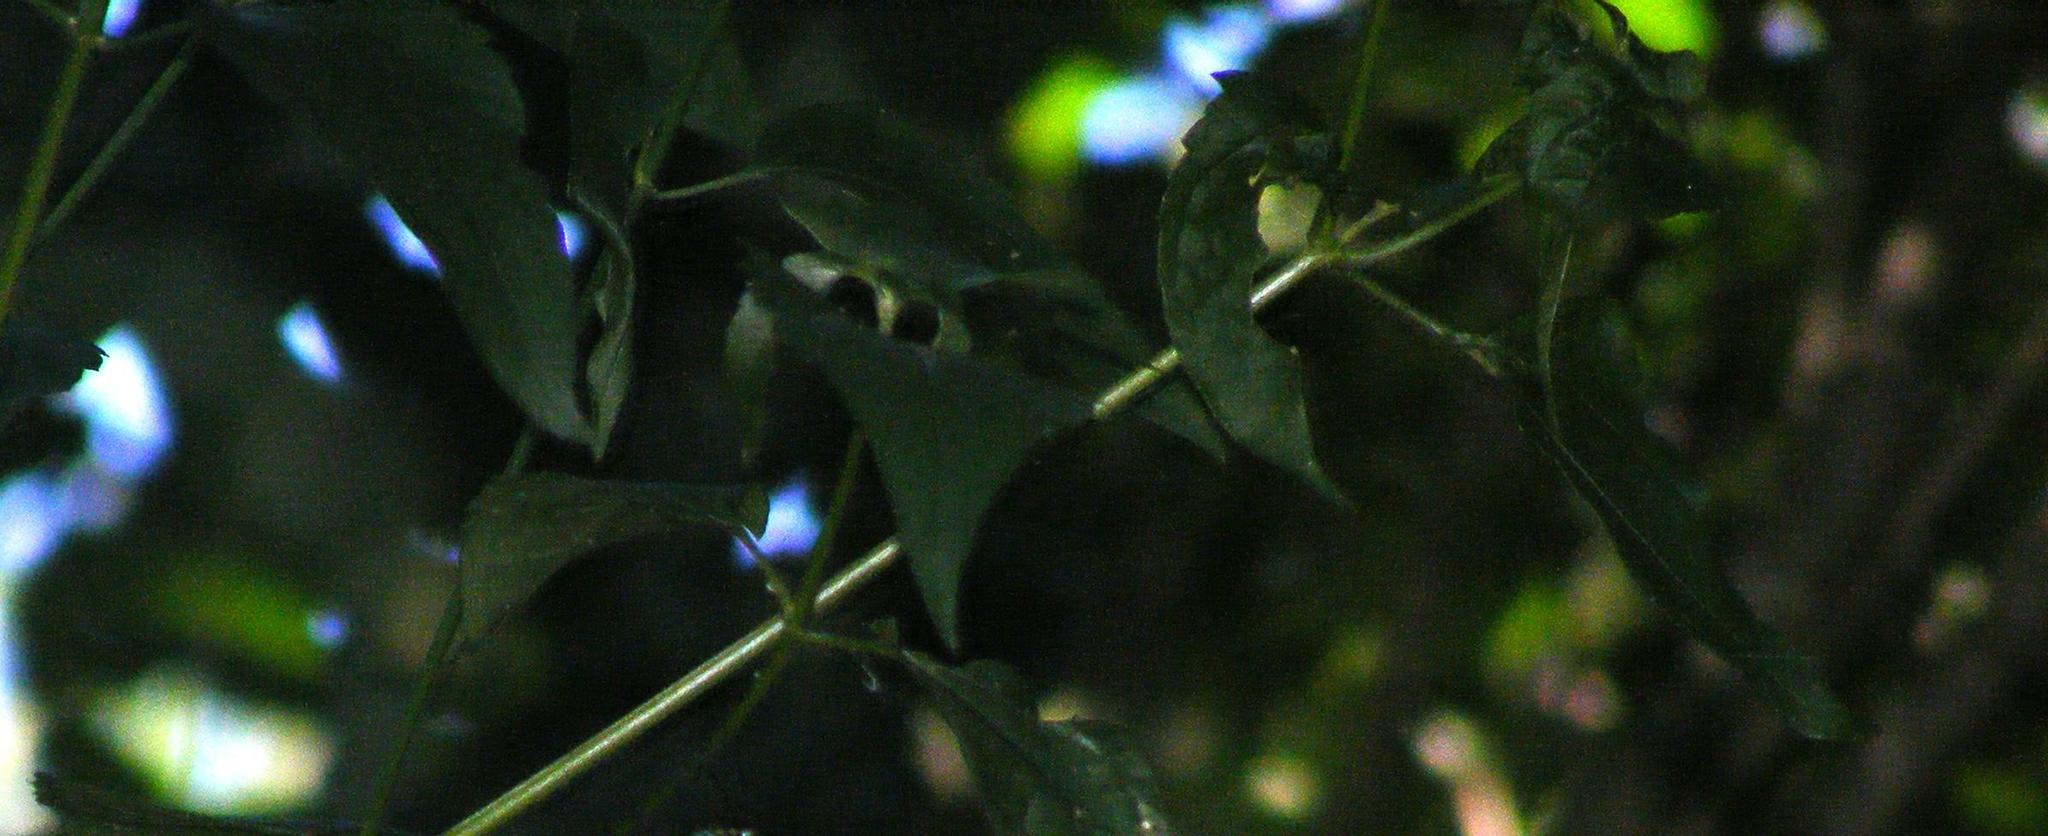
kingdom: Plantae
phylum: Tracheophyta
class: Magnoliopsida
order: Asterales
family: Asteraceae
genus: Chromolaena
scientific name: Chromolaena odorata
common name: Siamweed
